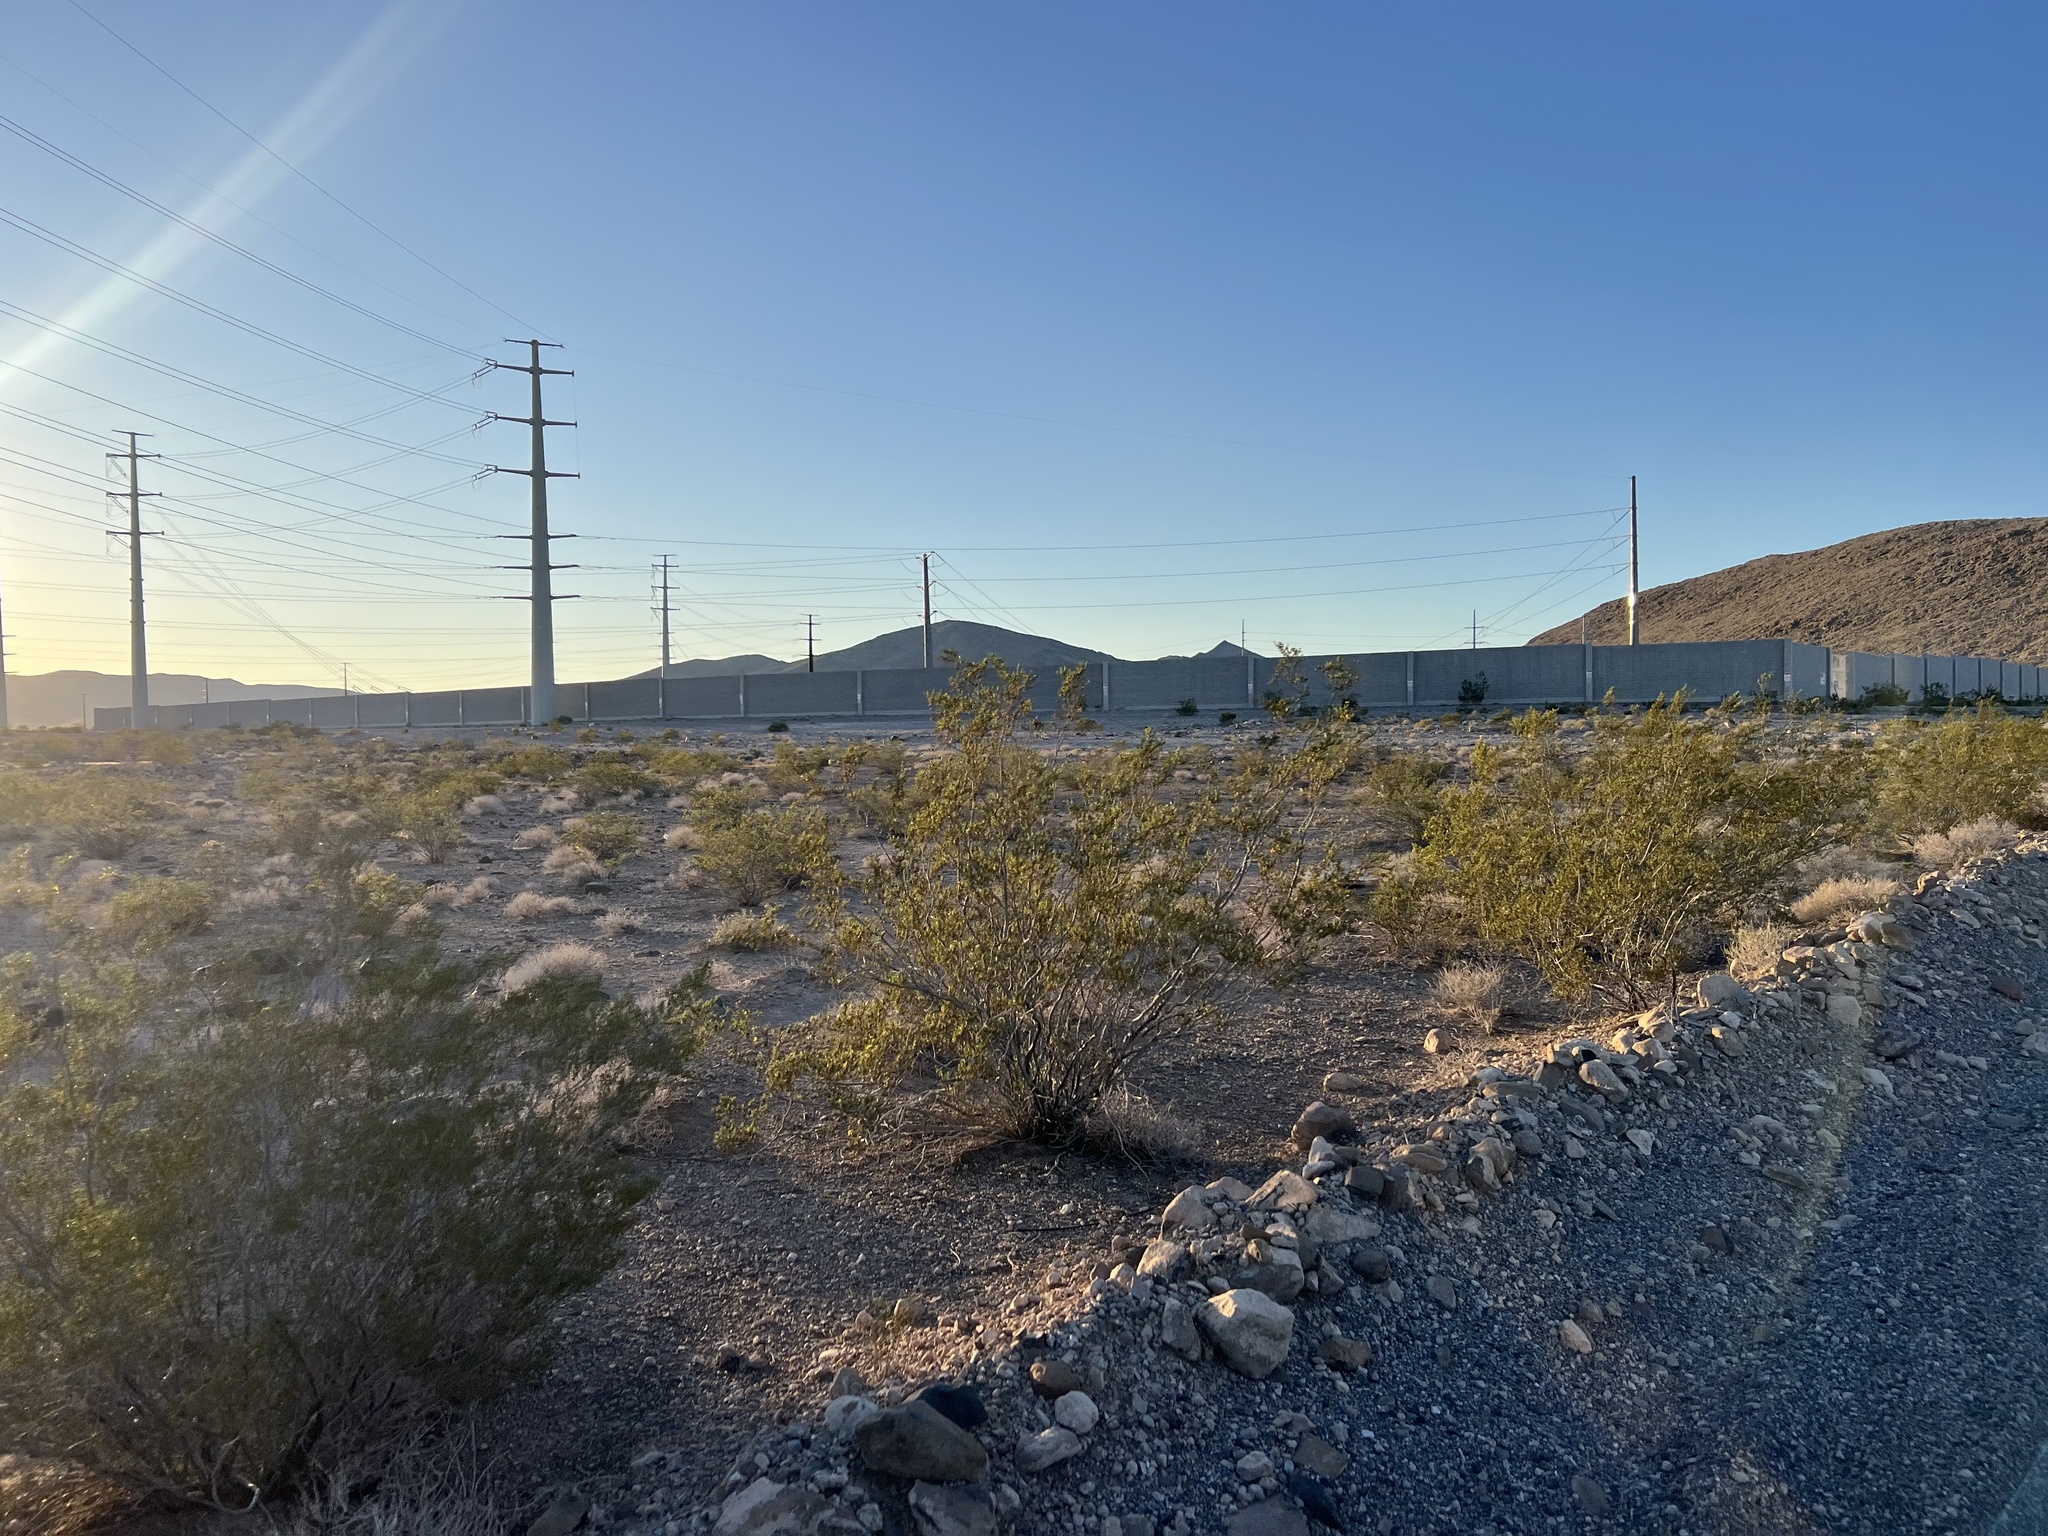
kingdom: Plantae
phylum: Tracheophyta
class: Magnoliopsida
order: Zygophyllales
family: Zygophyllaceae
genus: Larrea
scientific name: Larrea tridentata
